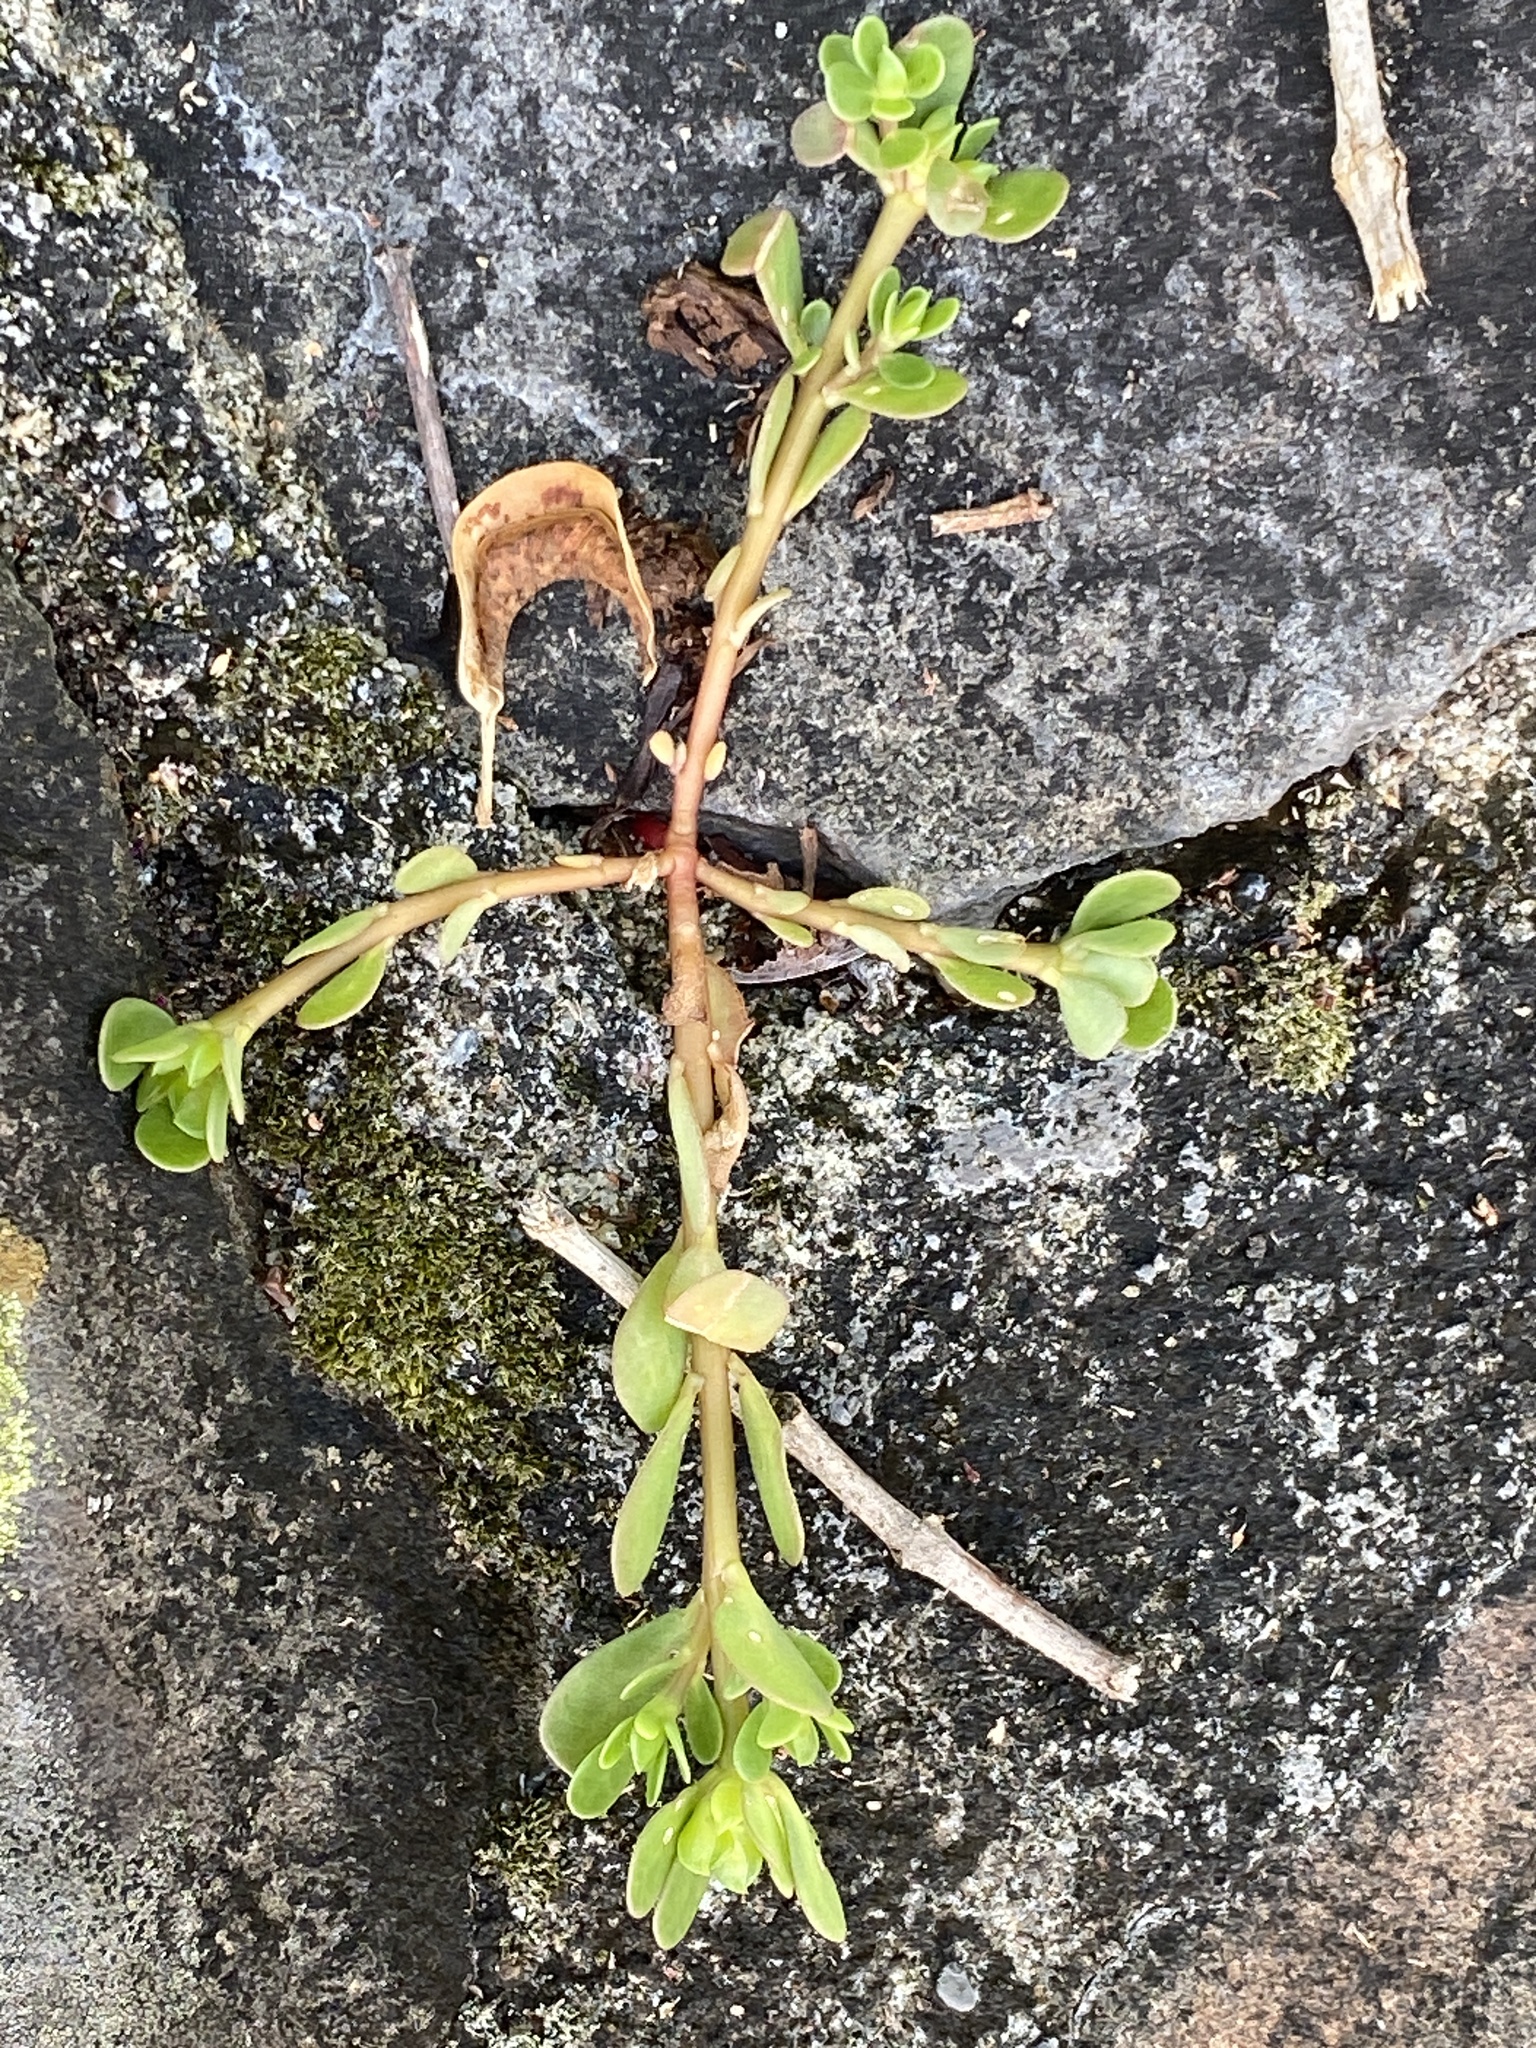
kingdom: Plantae
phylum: Tracheophyta
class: Magnoliopsida
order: Caryophyllales
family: Portulacaceae
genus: Portulaca
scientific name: Portulaca oleracea
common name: Common purslane
